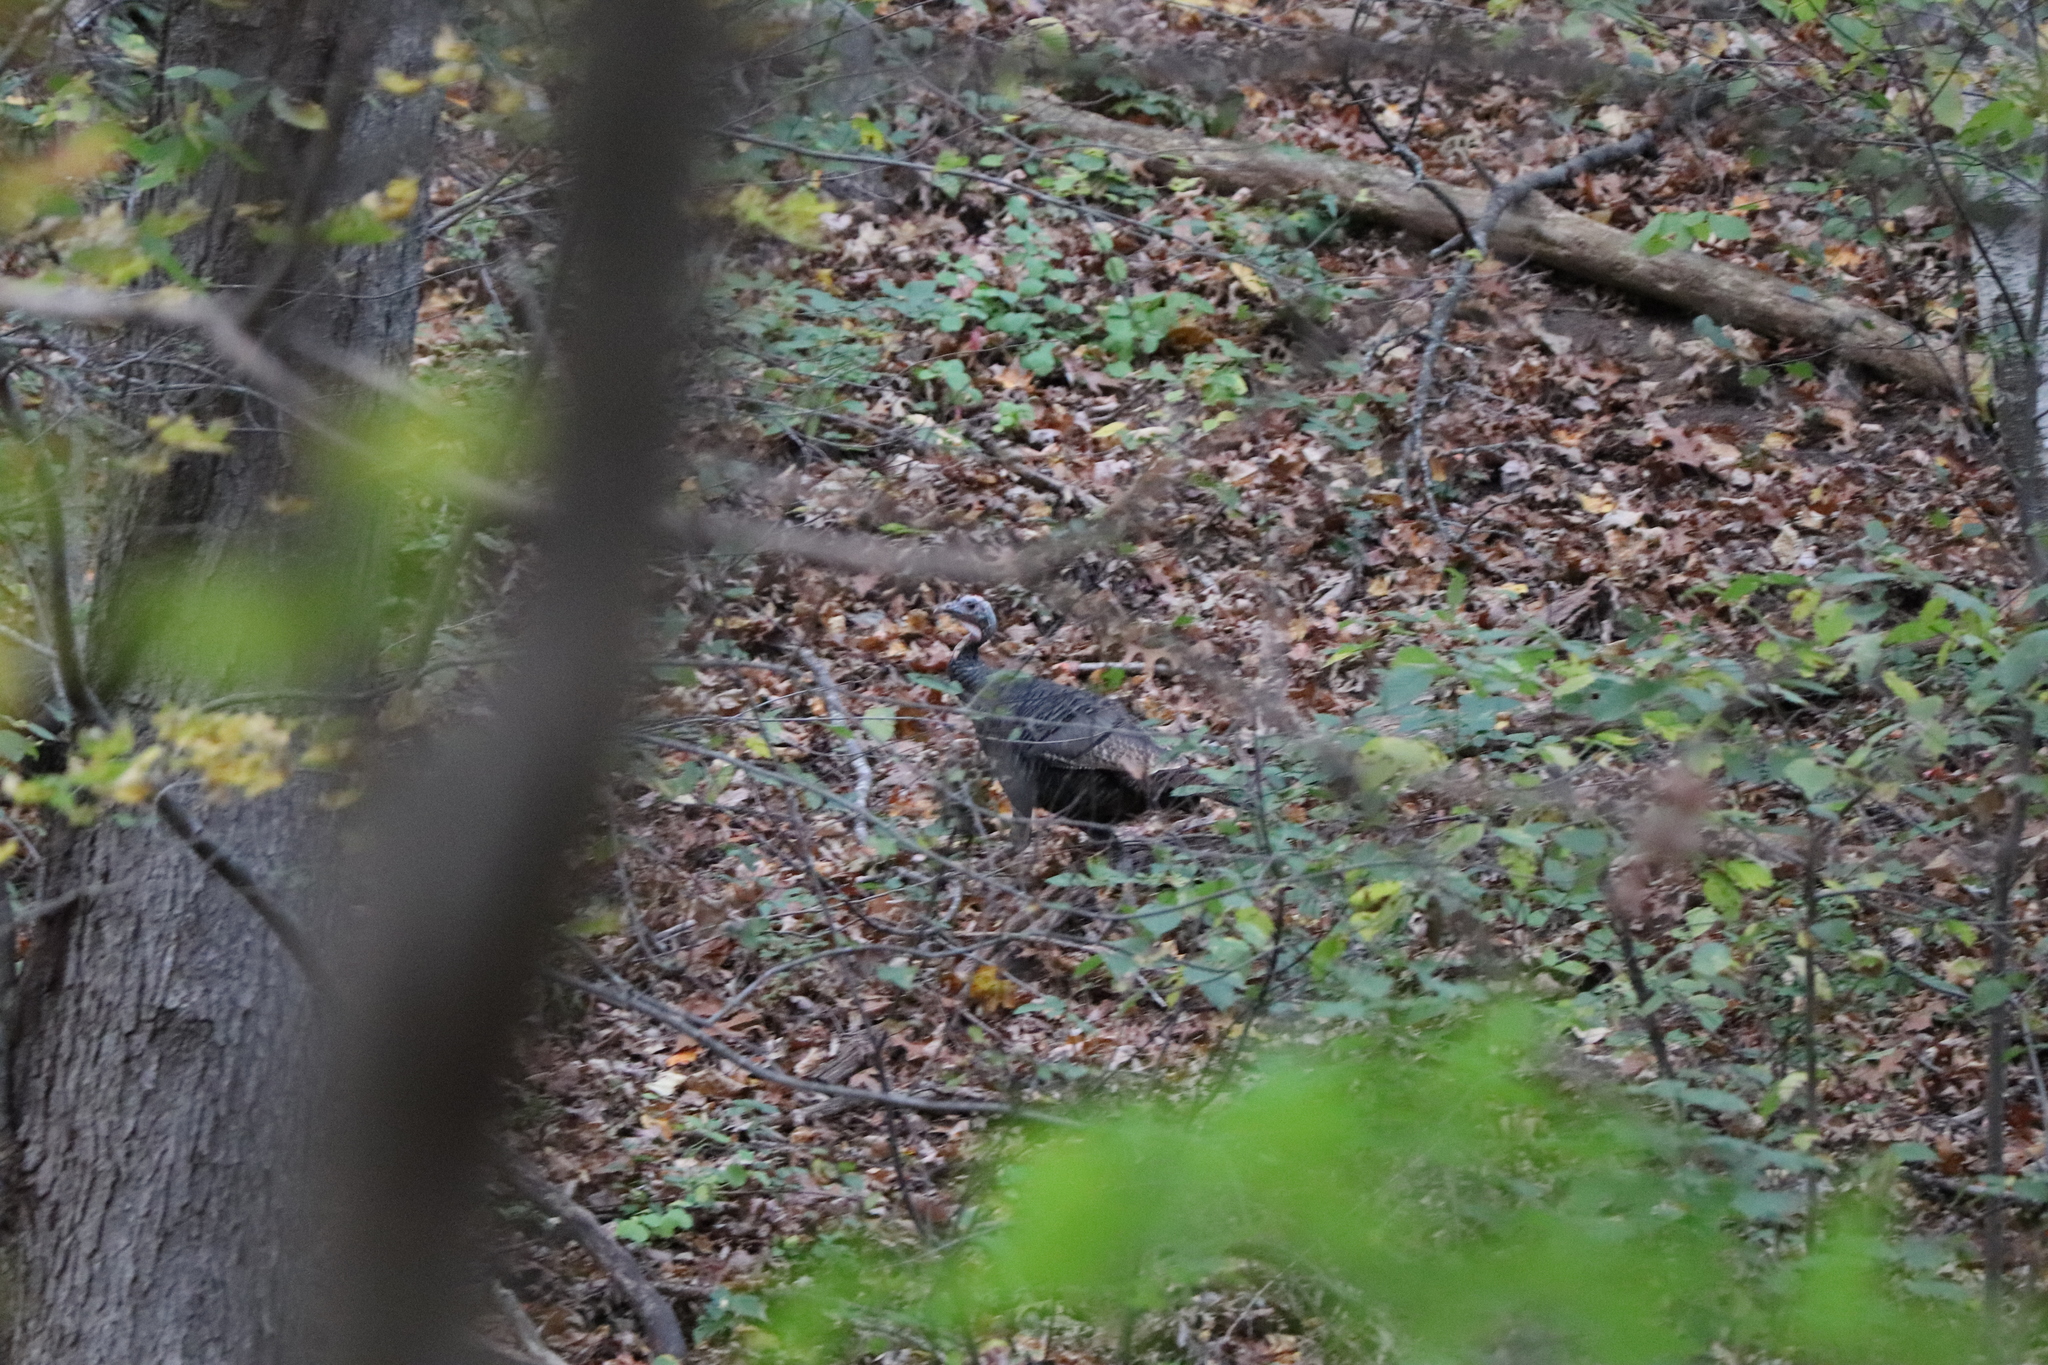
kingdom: Animalia
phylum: Chordata
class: Aves
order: Galliformes
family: Phasianidae
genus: Meleagris
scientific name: Meleagris gallopavo
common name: Wild turkey
